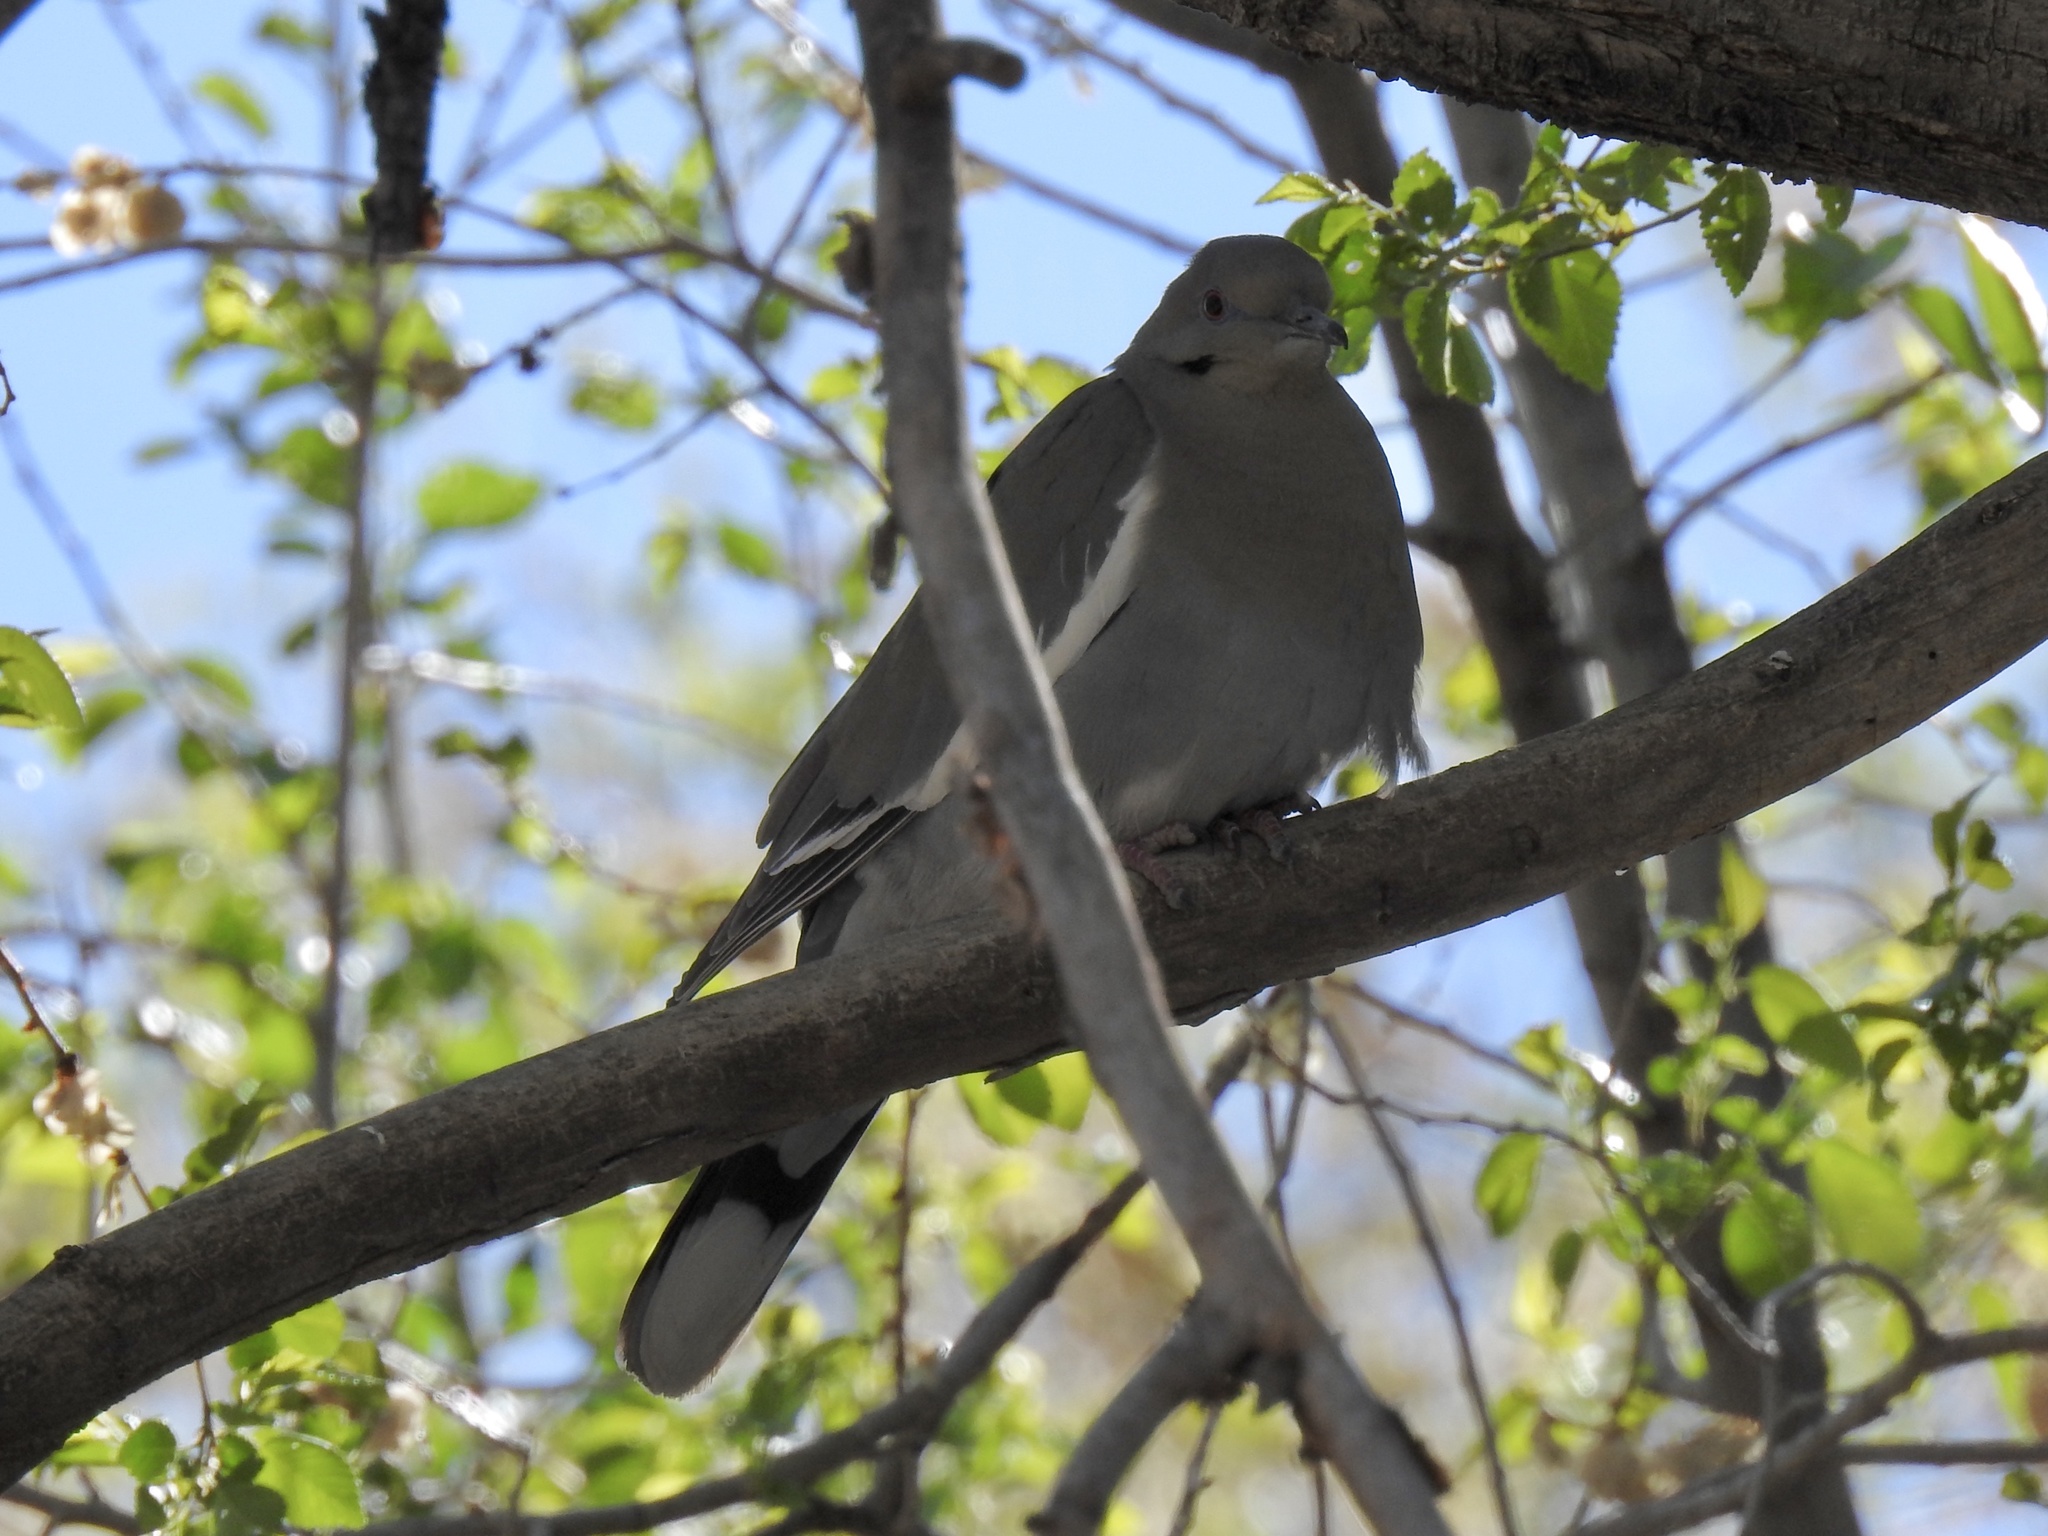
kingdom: Animalia
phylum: Chordata
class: Aves
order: Columbiformes
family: Columbidae
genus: Zenaida
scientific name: Zenaida asiatica
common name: White-winged dove
